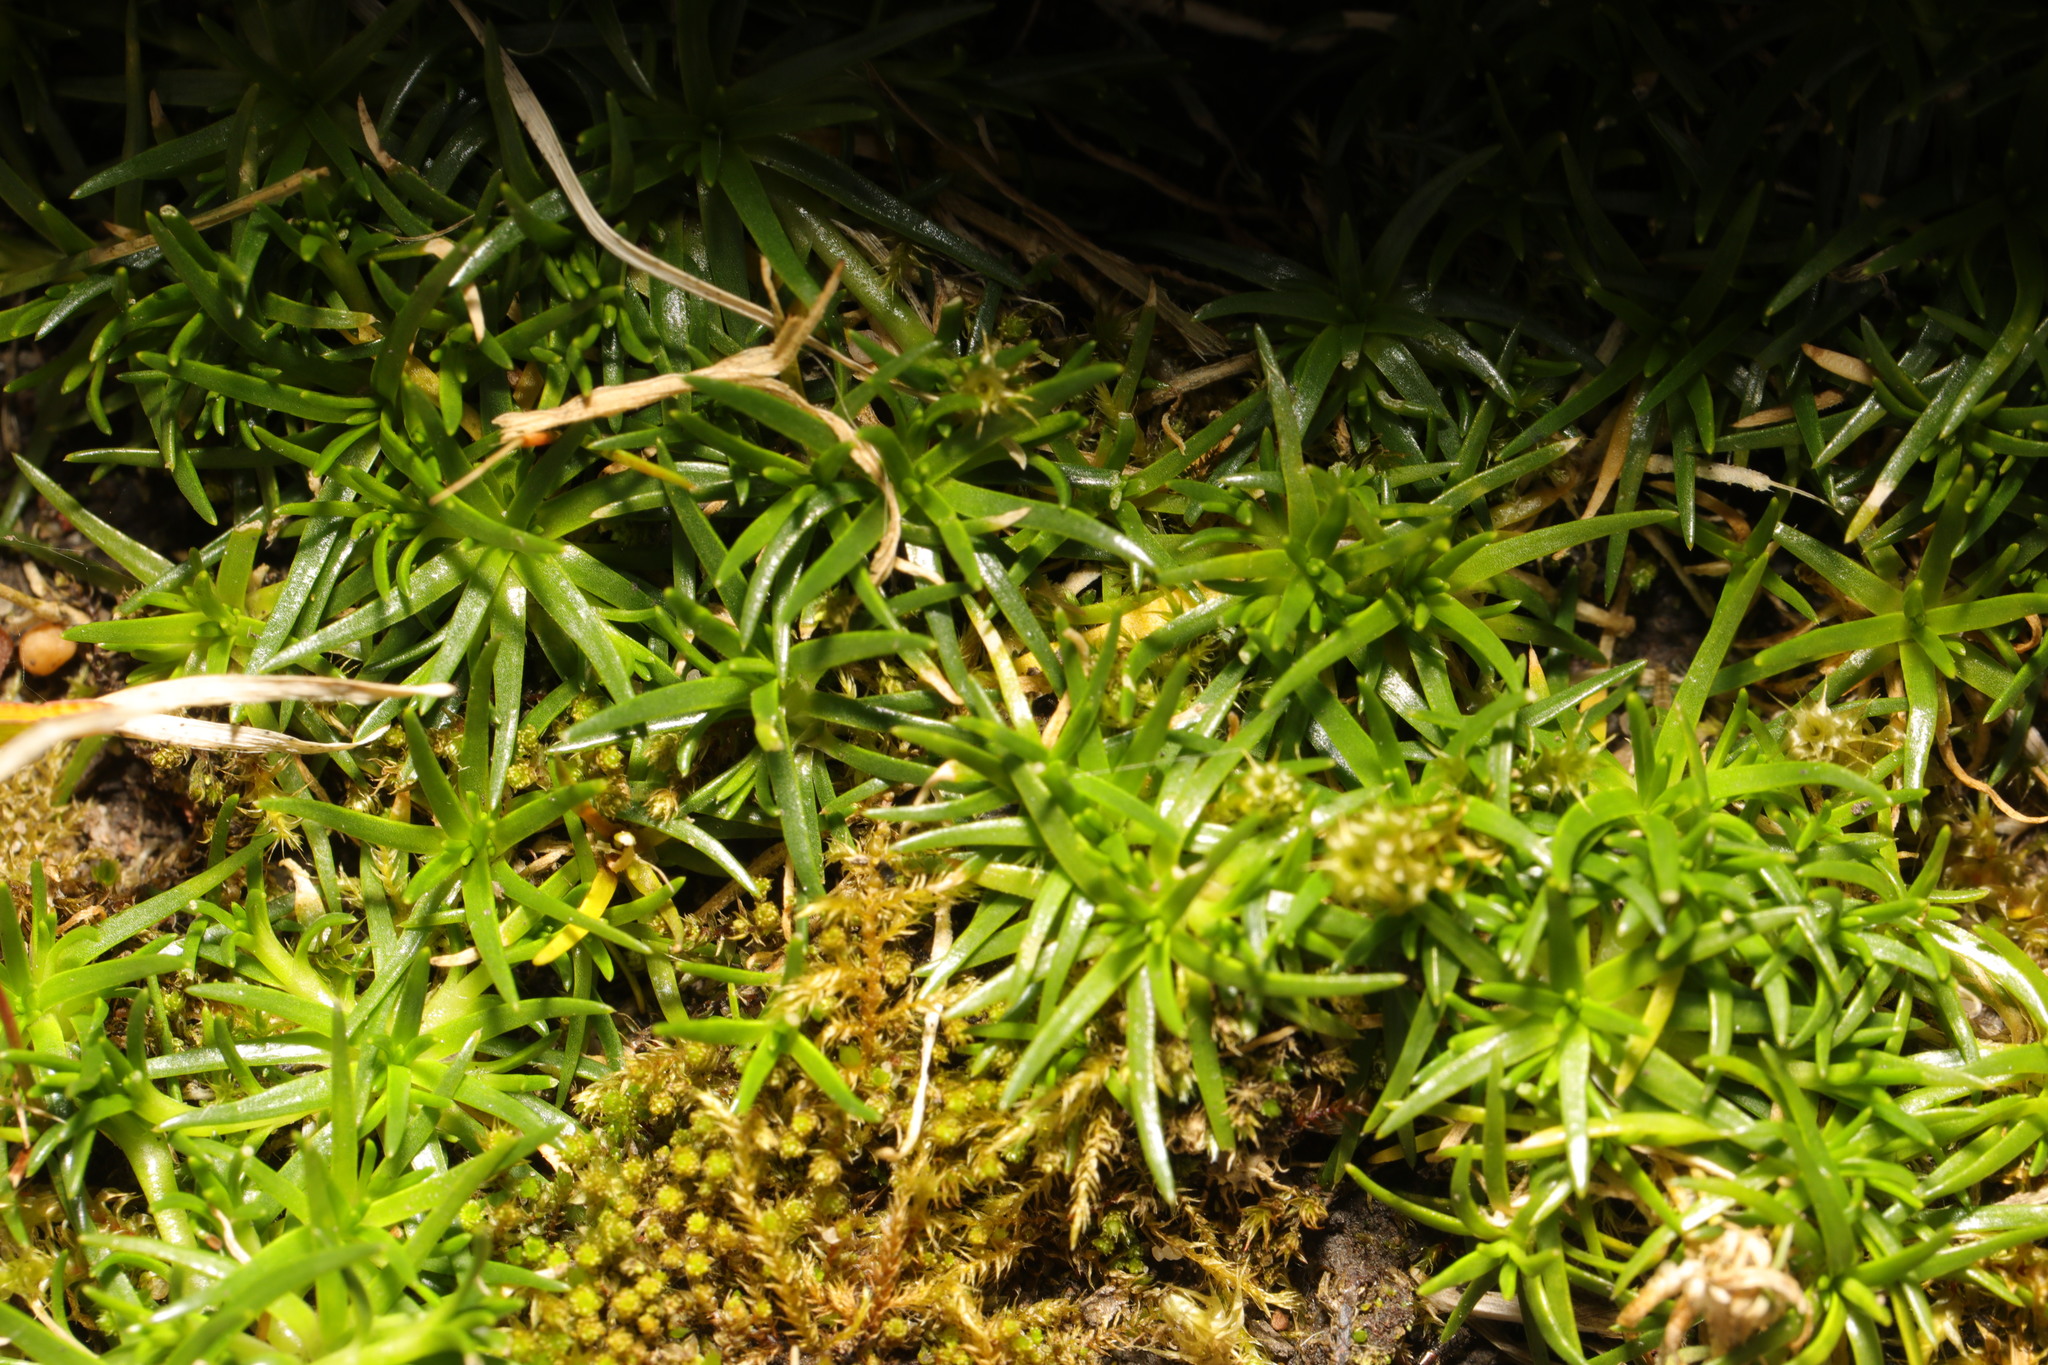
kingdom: Plantae
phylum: Tracheophyta
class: Magnoliopsida
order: Caryophyllales
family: Caryophyllaceae
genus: Sagina
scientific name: Sagina procumbens
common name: Procumbent pearlwort
